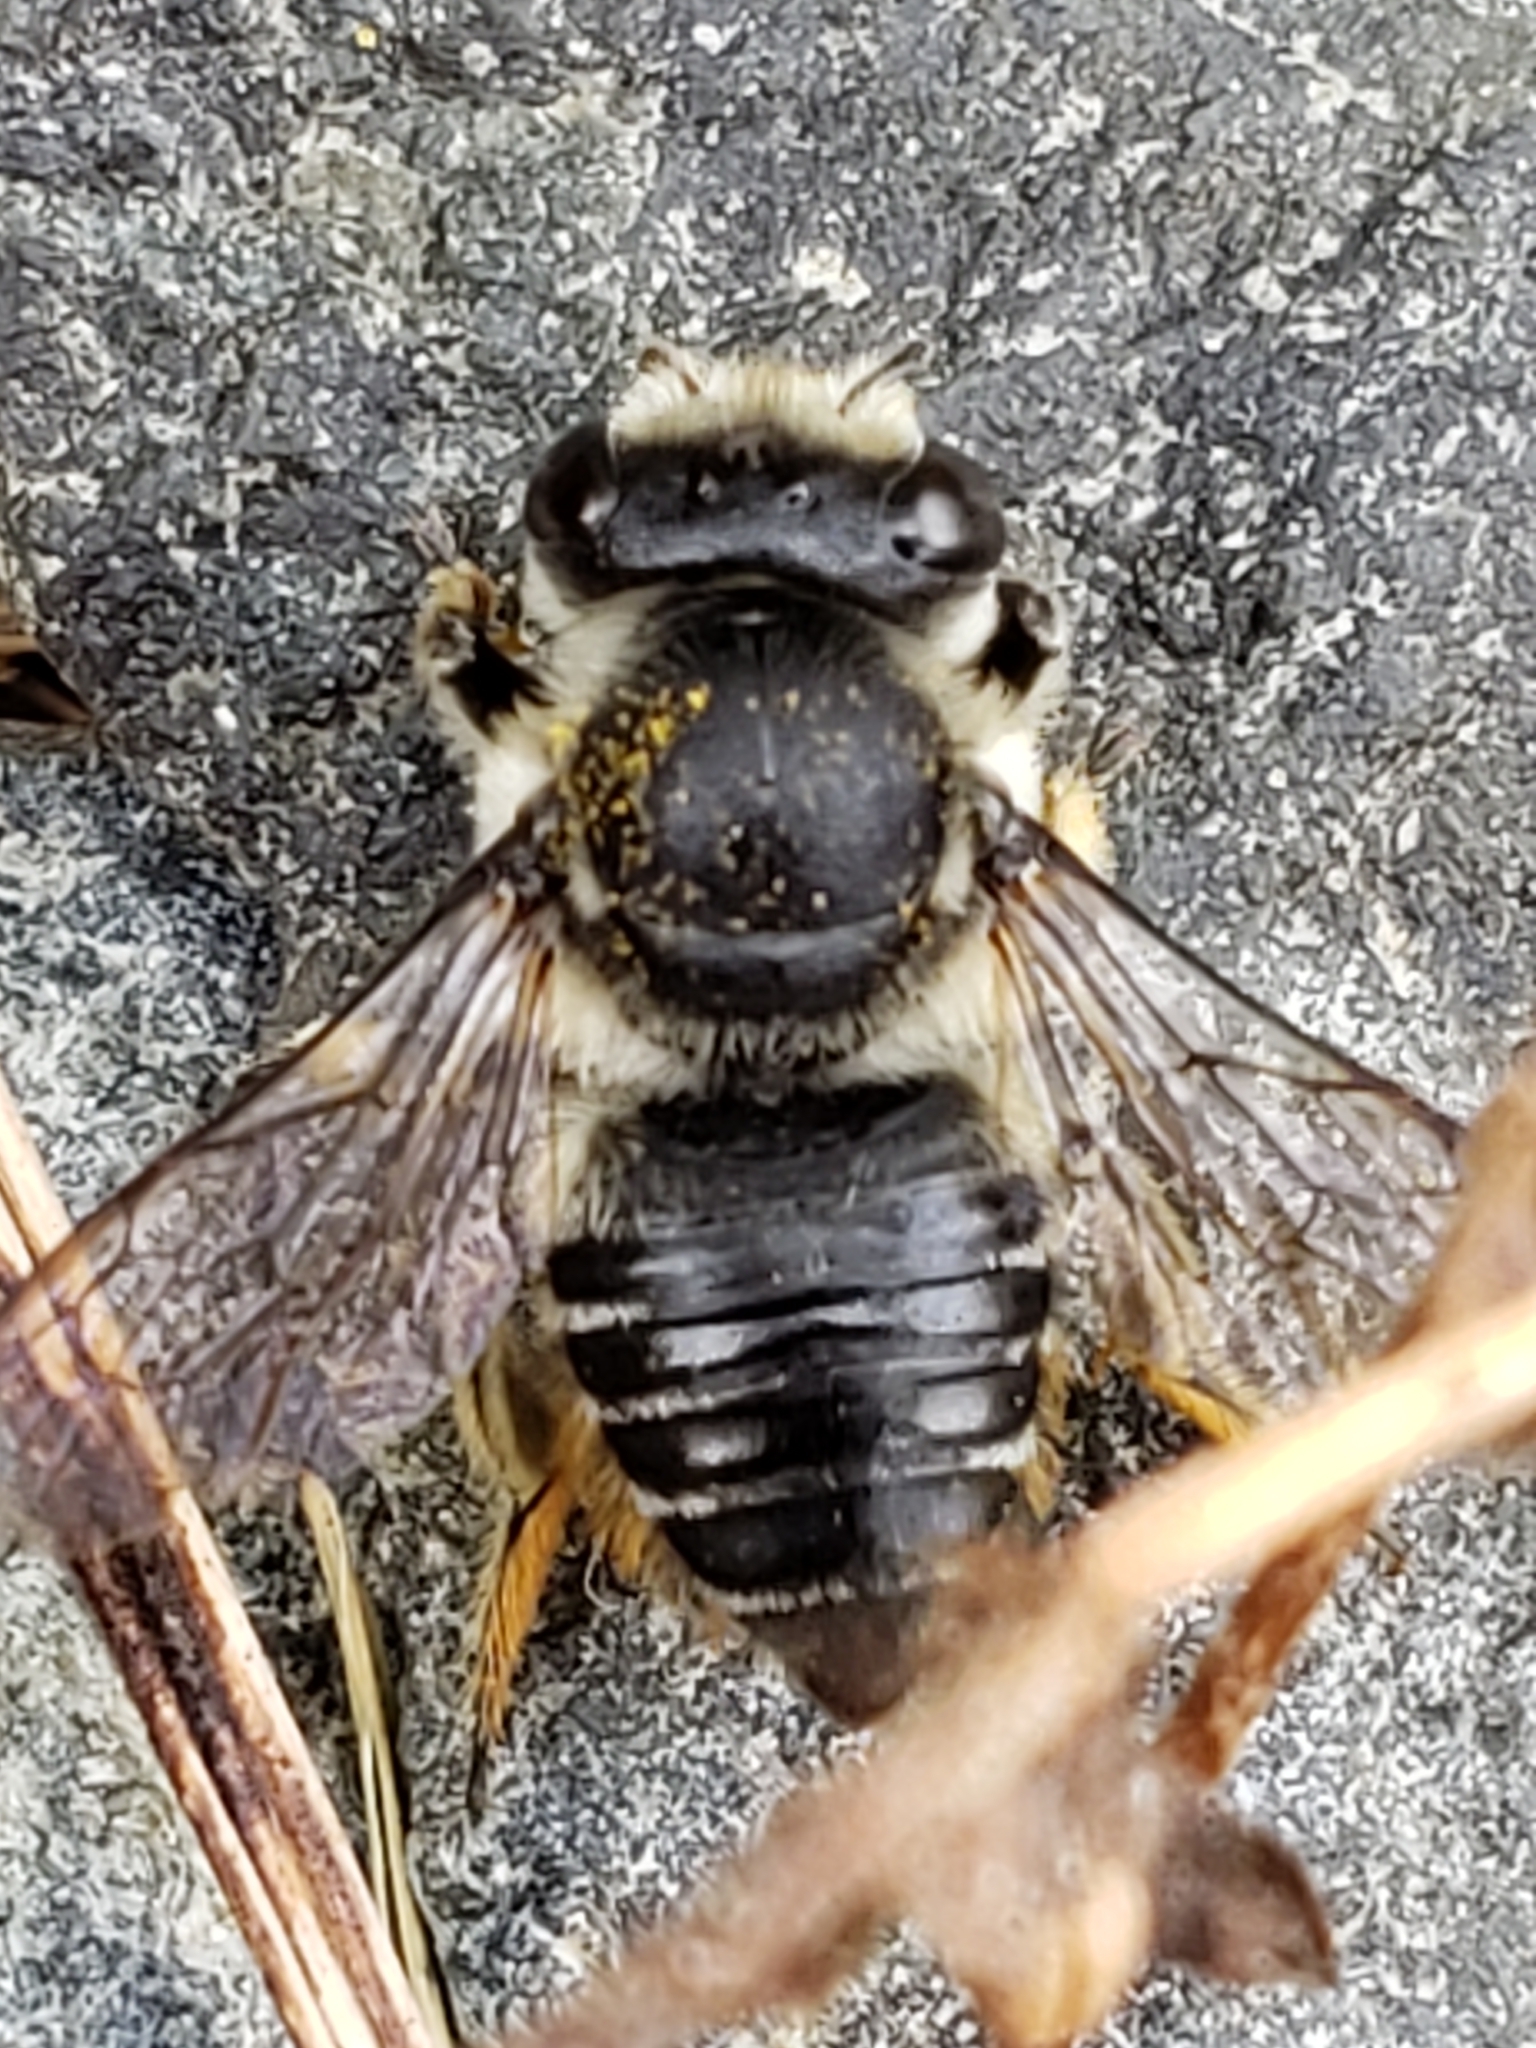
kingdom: Animalia
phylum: Arthropoda
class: Insecta
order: Hymenoptera
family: Megachilidae
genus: Megachile
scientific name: Megachile mendica
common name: Flat-tailed leafcutter
